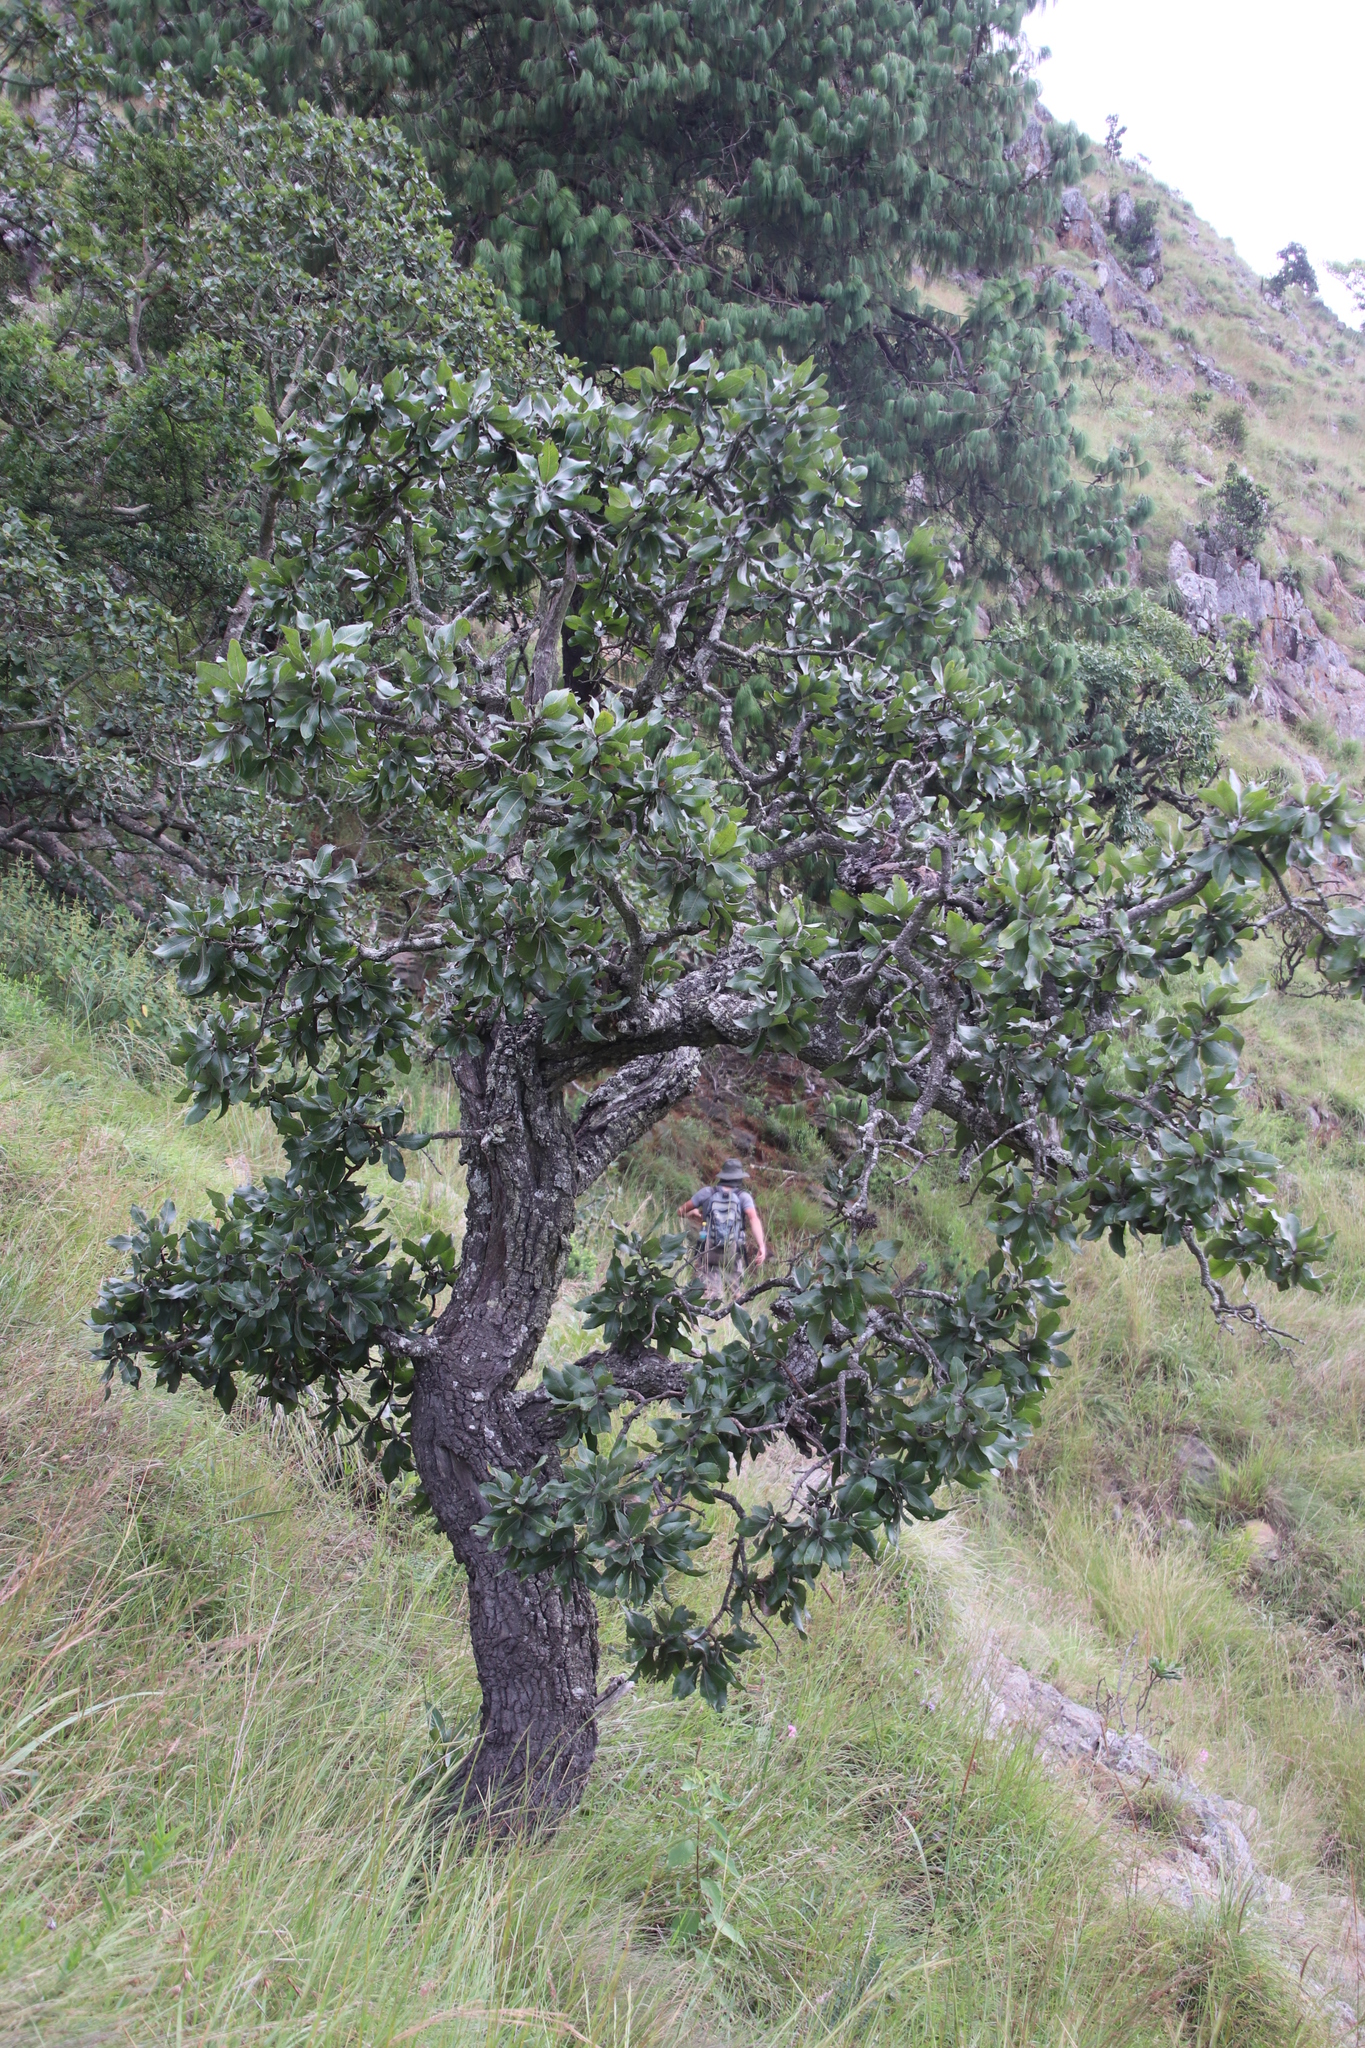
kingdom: Plantae
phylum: Tracheophyta
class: Magnoliopsida
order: Proteales
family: Proteaceae
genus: Faurea
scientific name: Faurea rochetiana
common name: Broad-leaved beech
